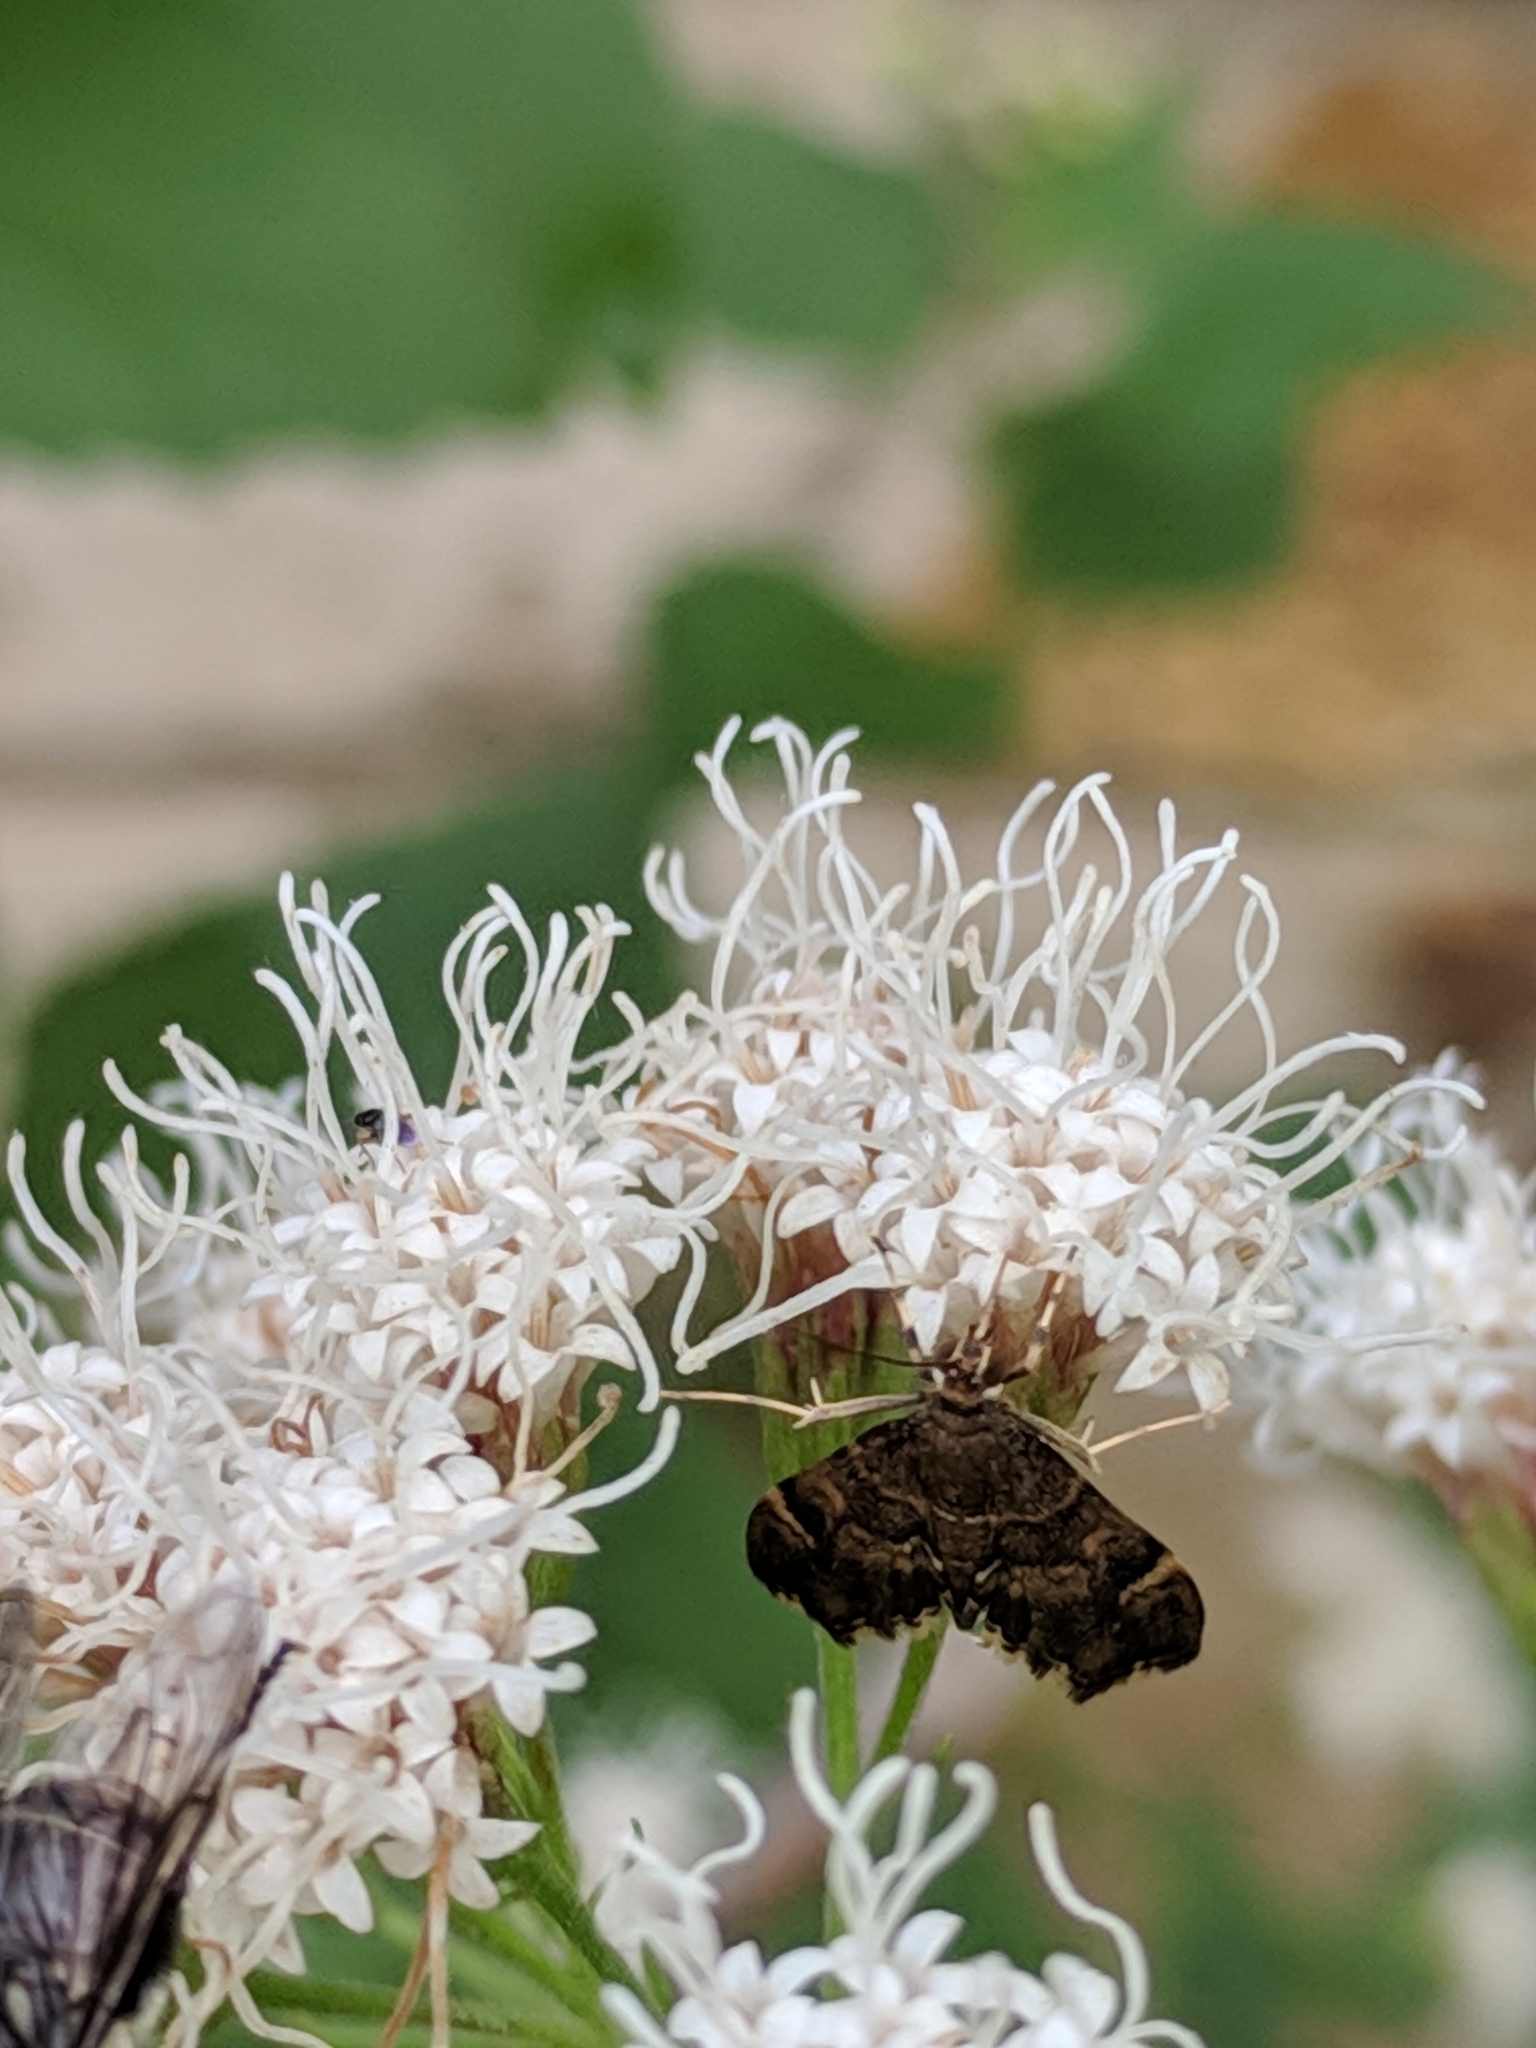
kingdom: Animalia
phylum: Arthropoda
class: Insecta
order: Lepidoptera
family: Crambidae
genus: Hymenia
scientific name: Hymenia perspectalis
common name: Spotted beet webworm
